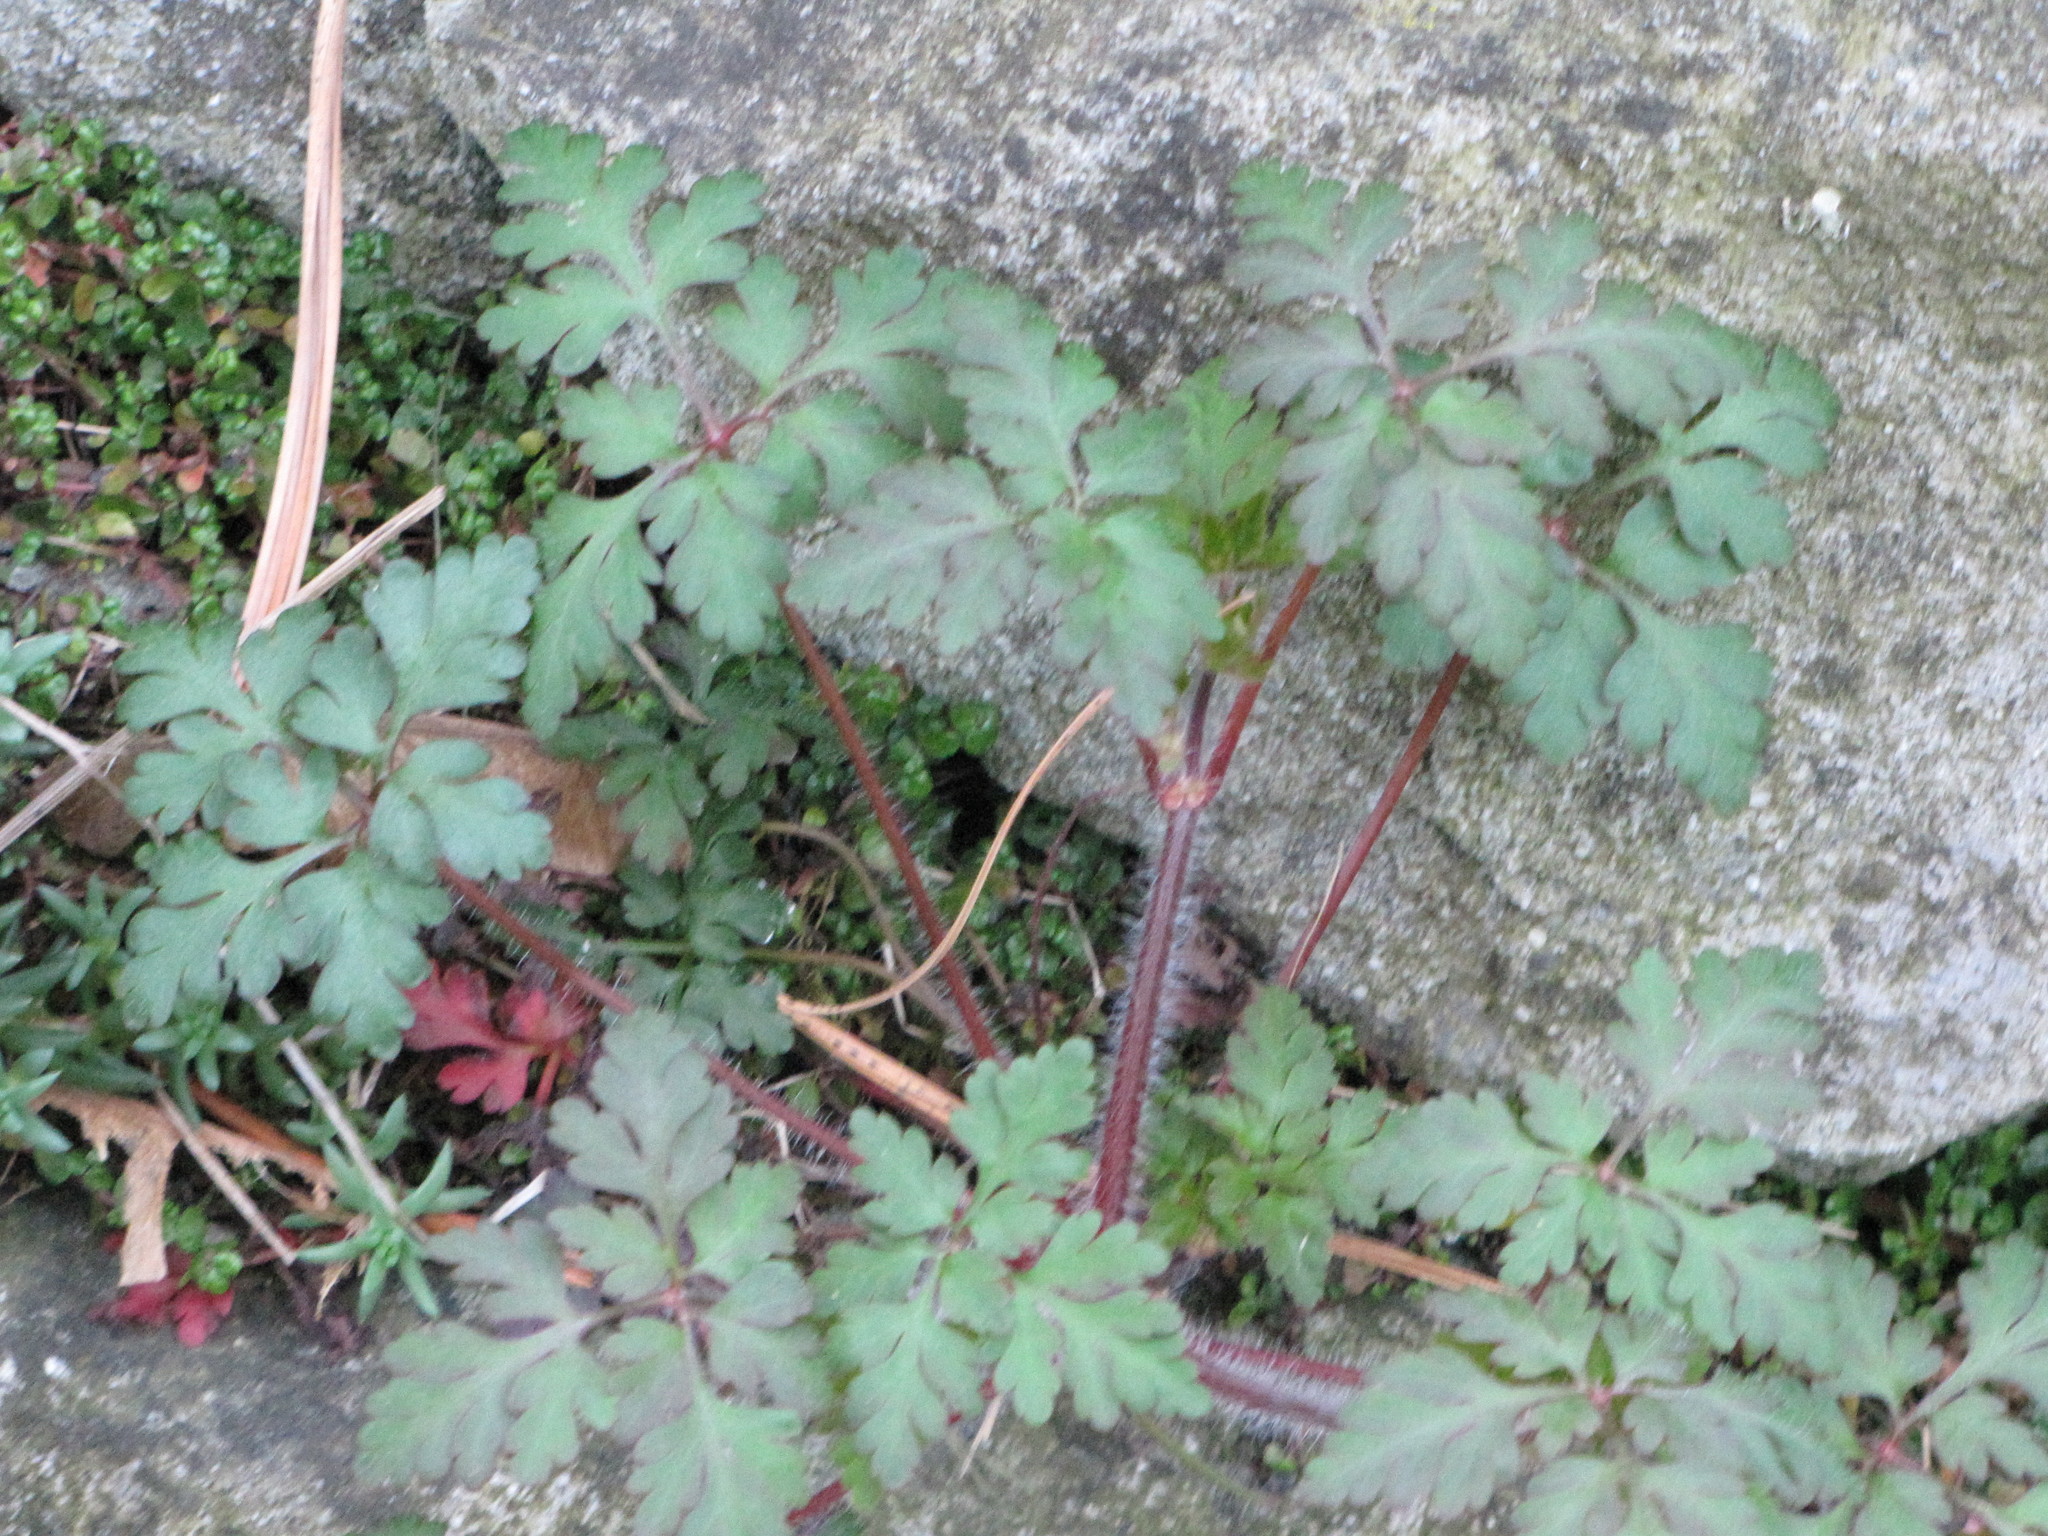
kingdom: Plantae
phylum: Tracheophyta
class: Magnoliopsida
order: Geraniales
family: Geraniaceae
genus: Geranium
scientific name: Geranium robertianum
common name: Herb-robert
